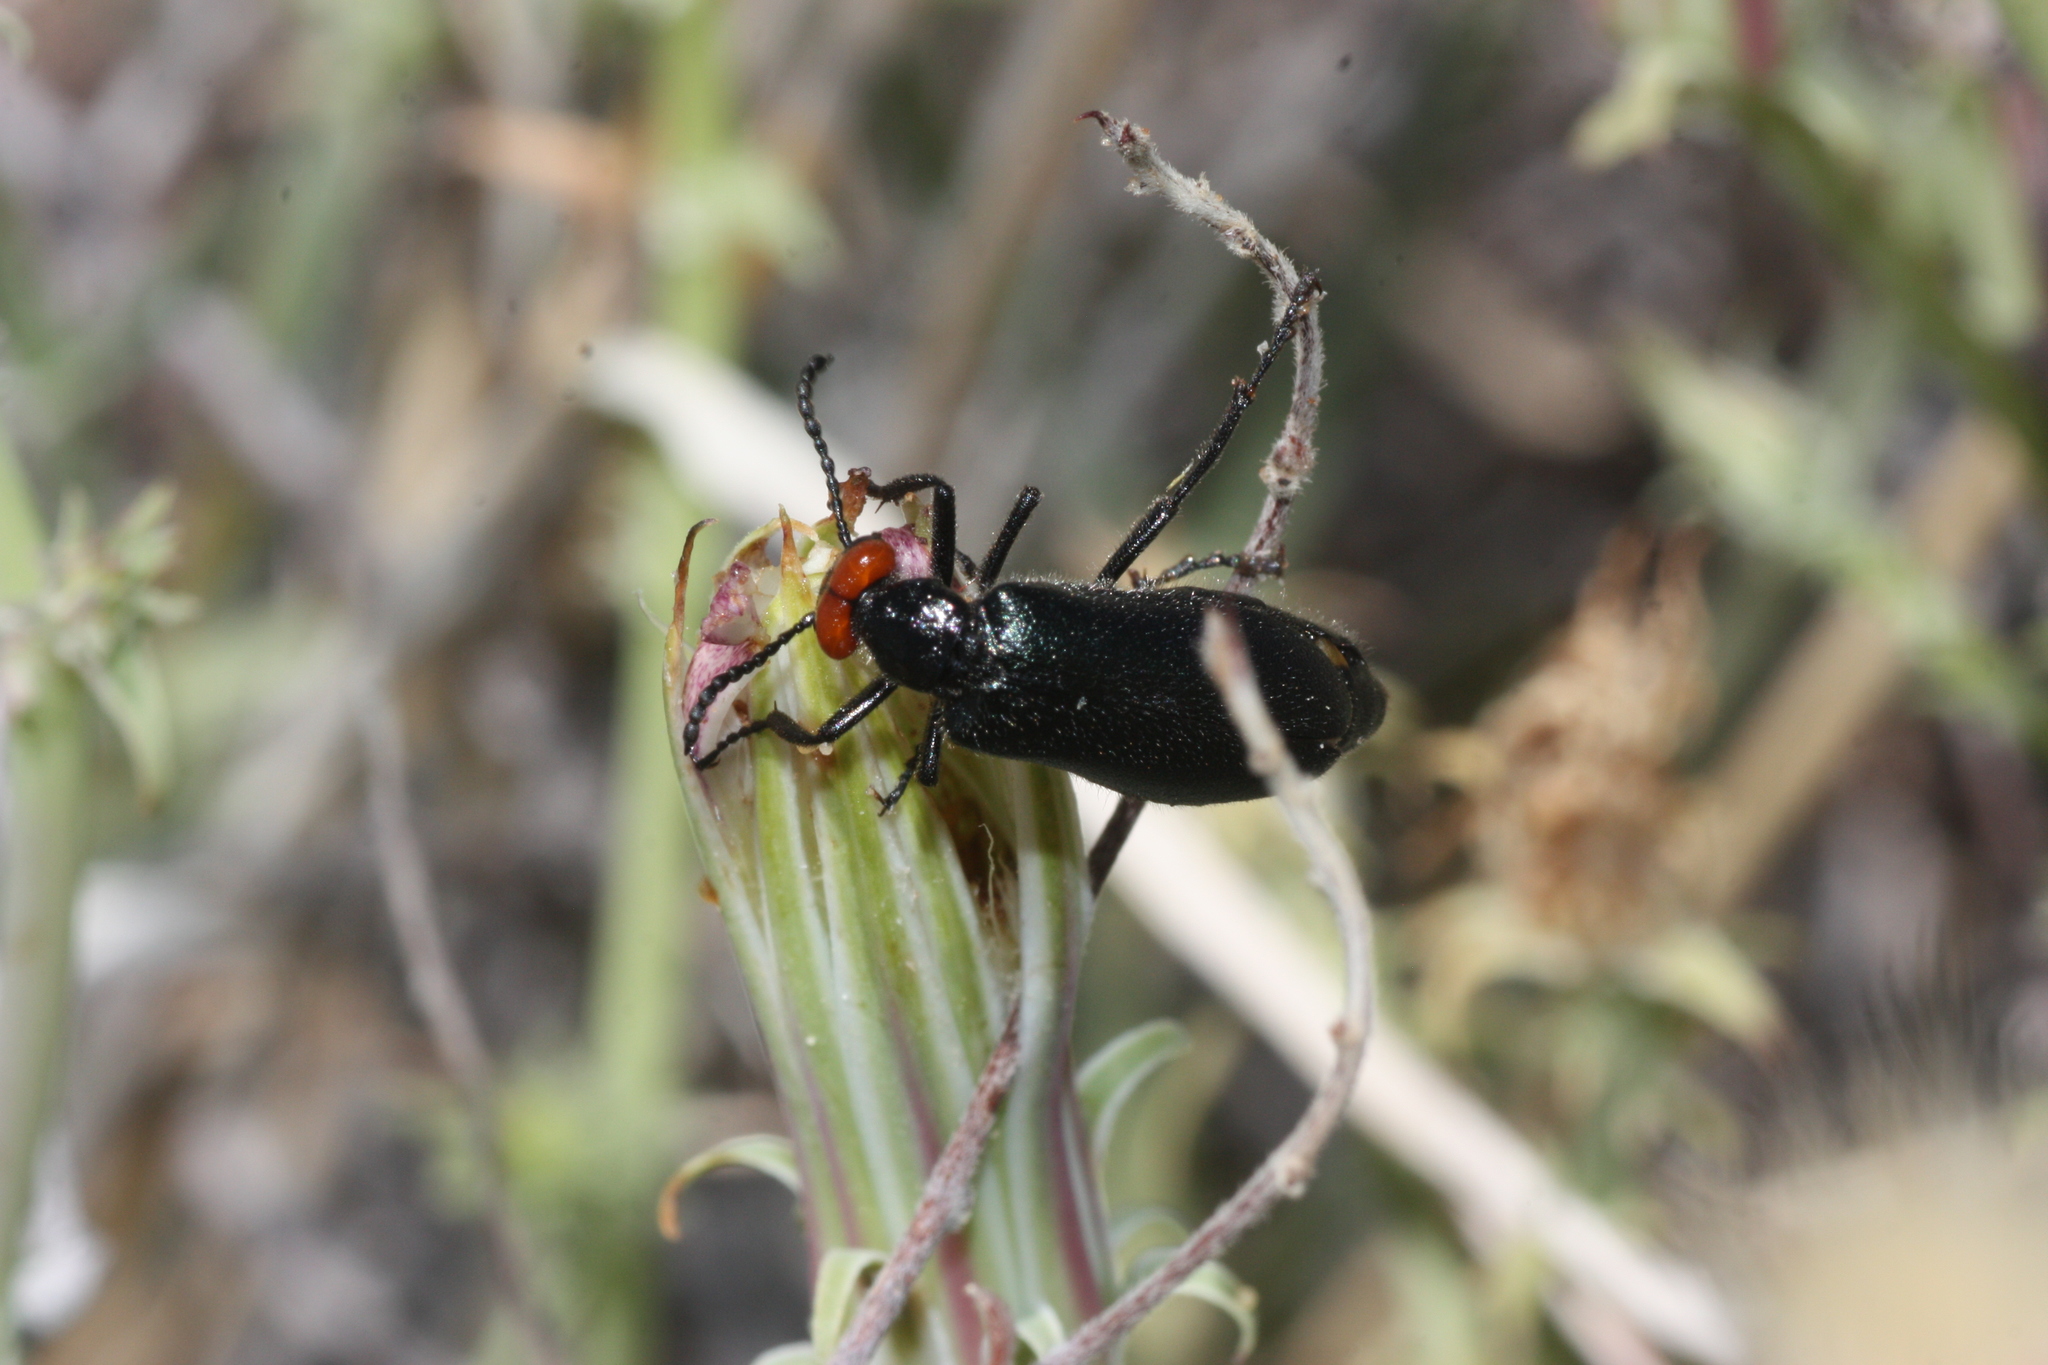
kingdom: Animalia
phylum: Arthropoda
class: Insecta
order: Coleoptera
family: Meloidae
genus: Lytta
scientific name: Lytta auriculata
